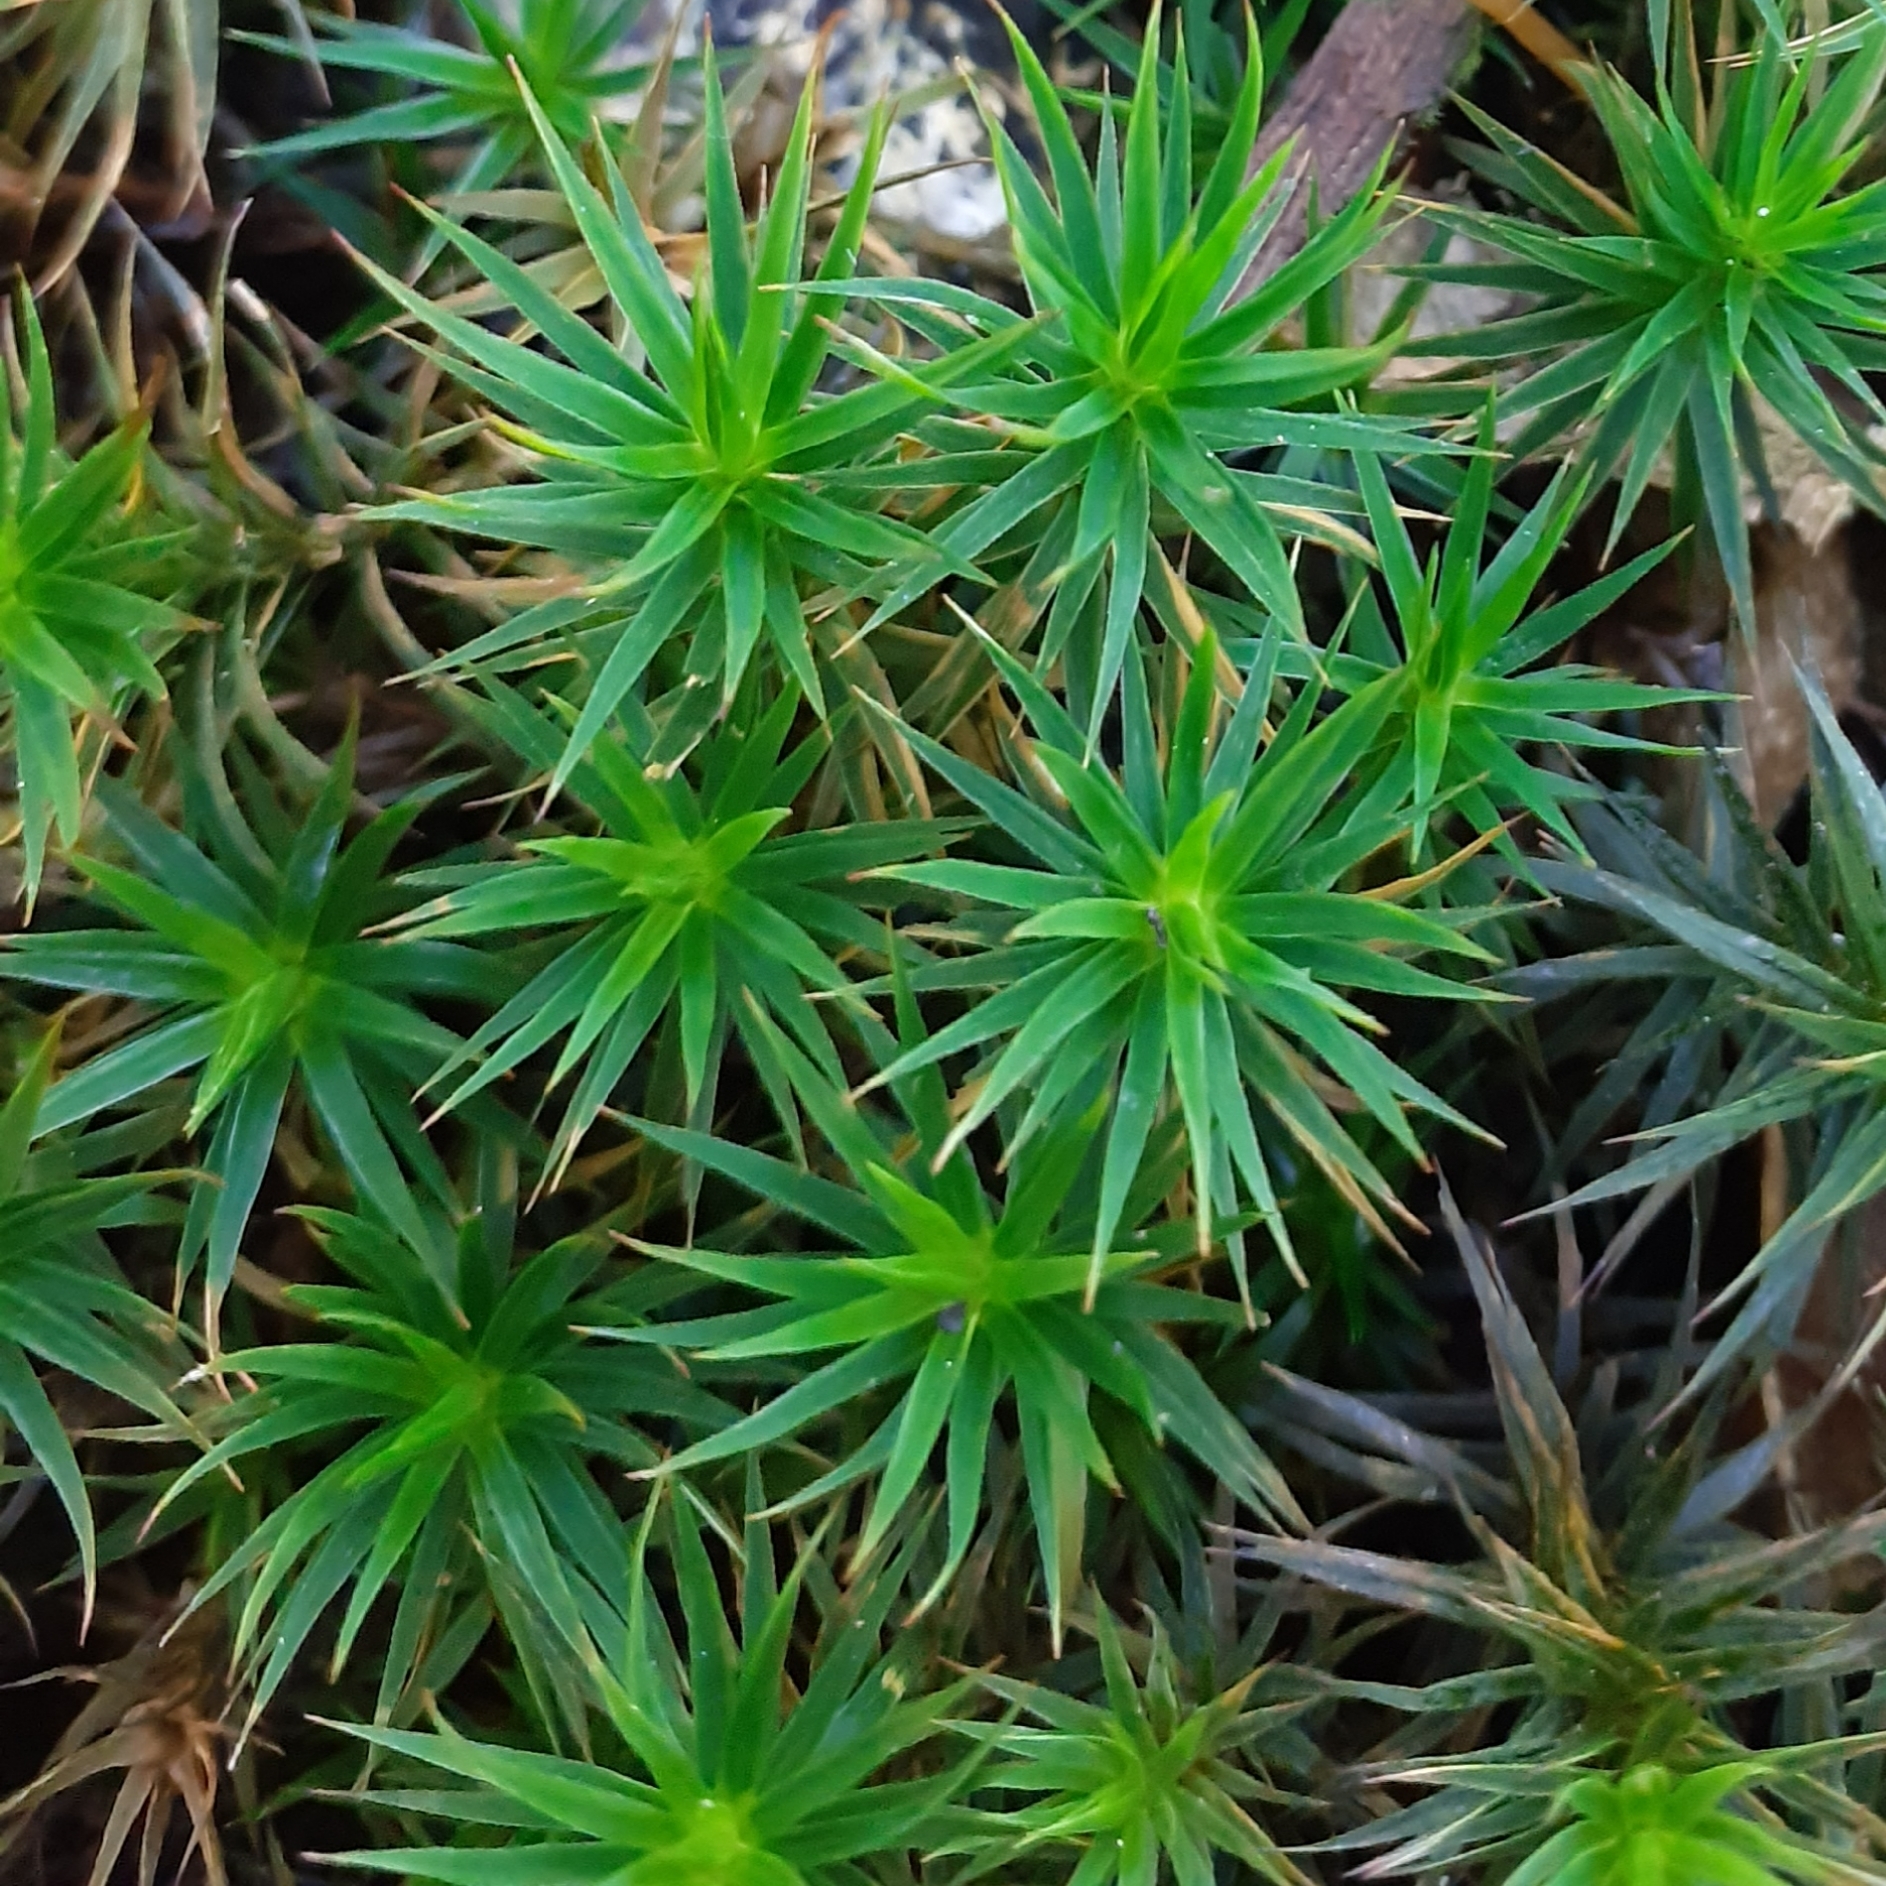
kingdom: Plantae
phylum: Bryophyta
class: Polytrichopsida
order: Polytrichales
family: Polytrichaceae
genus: Polytrichum
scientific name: Polytrichum formosum
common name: Bank haircap moss
